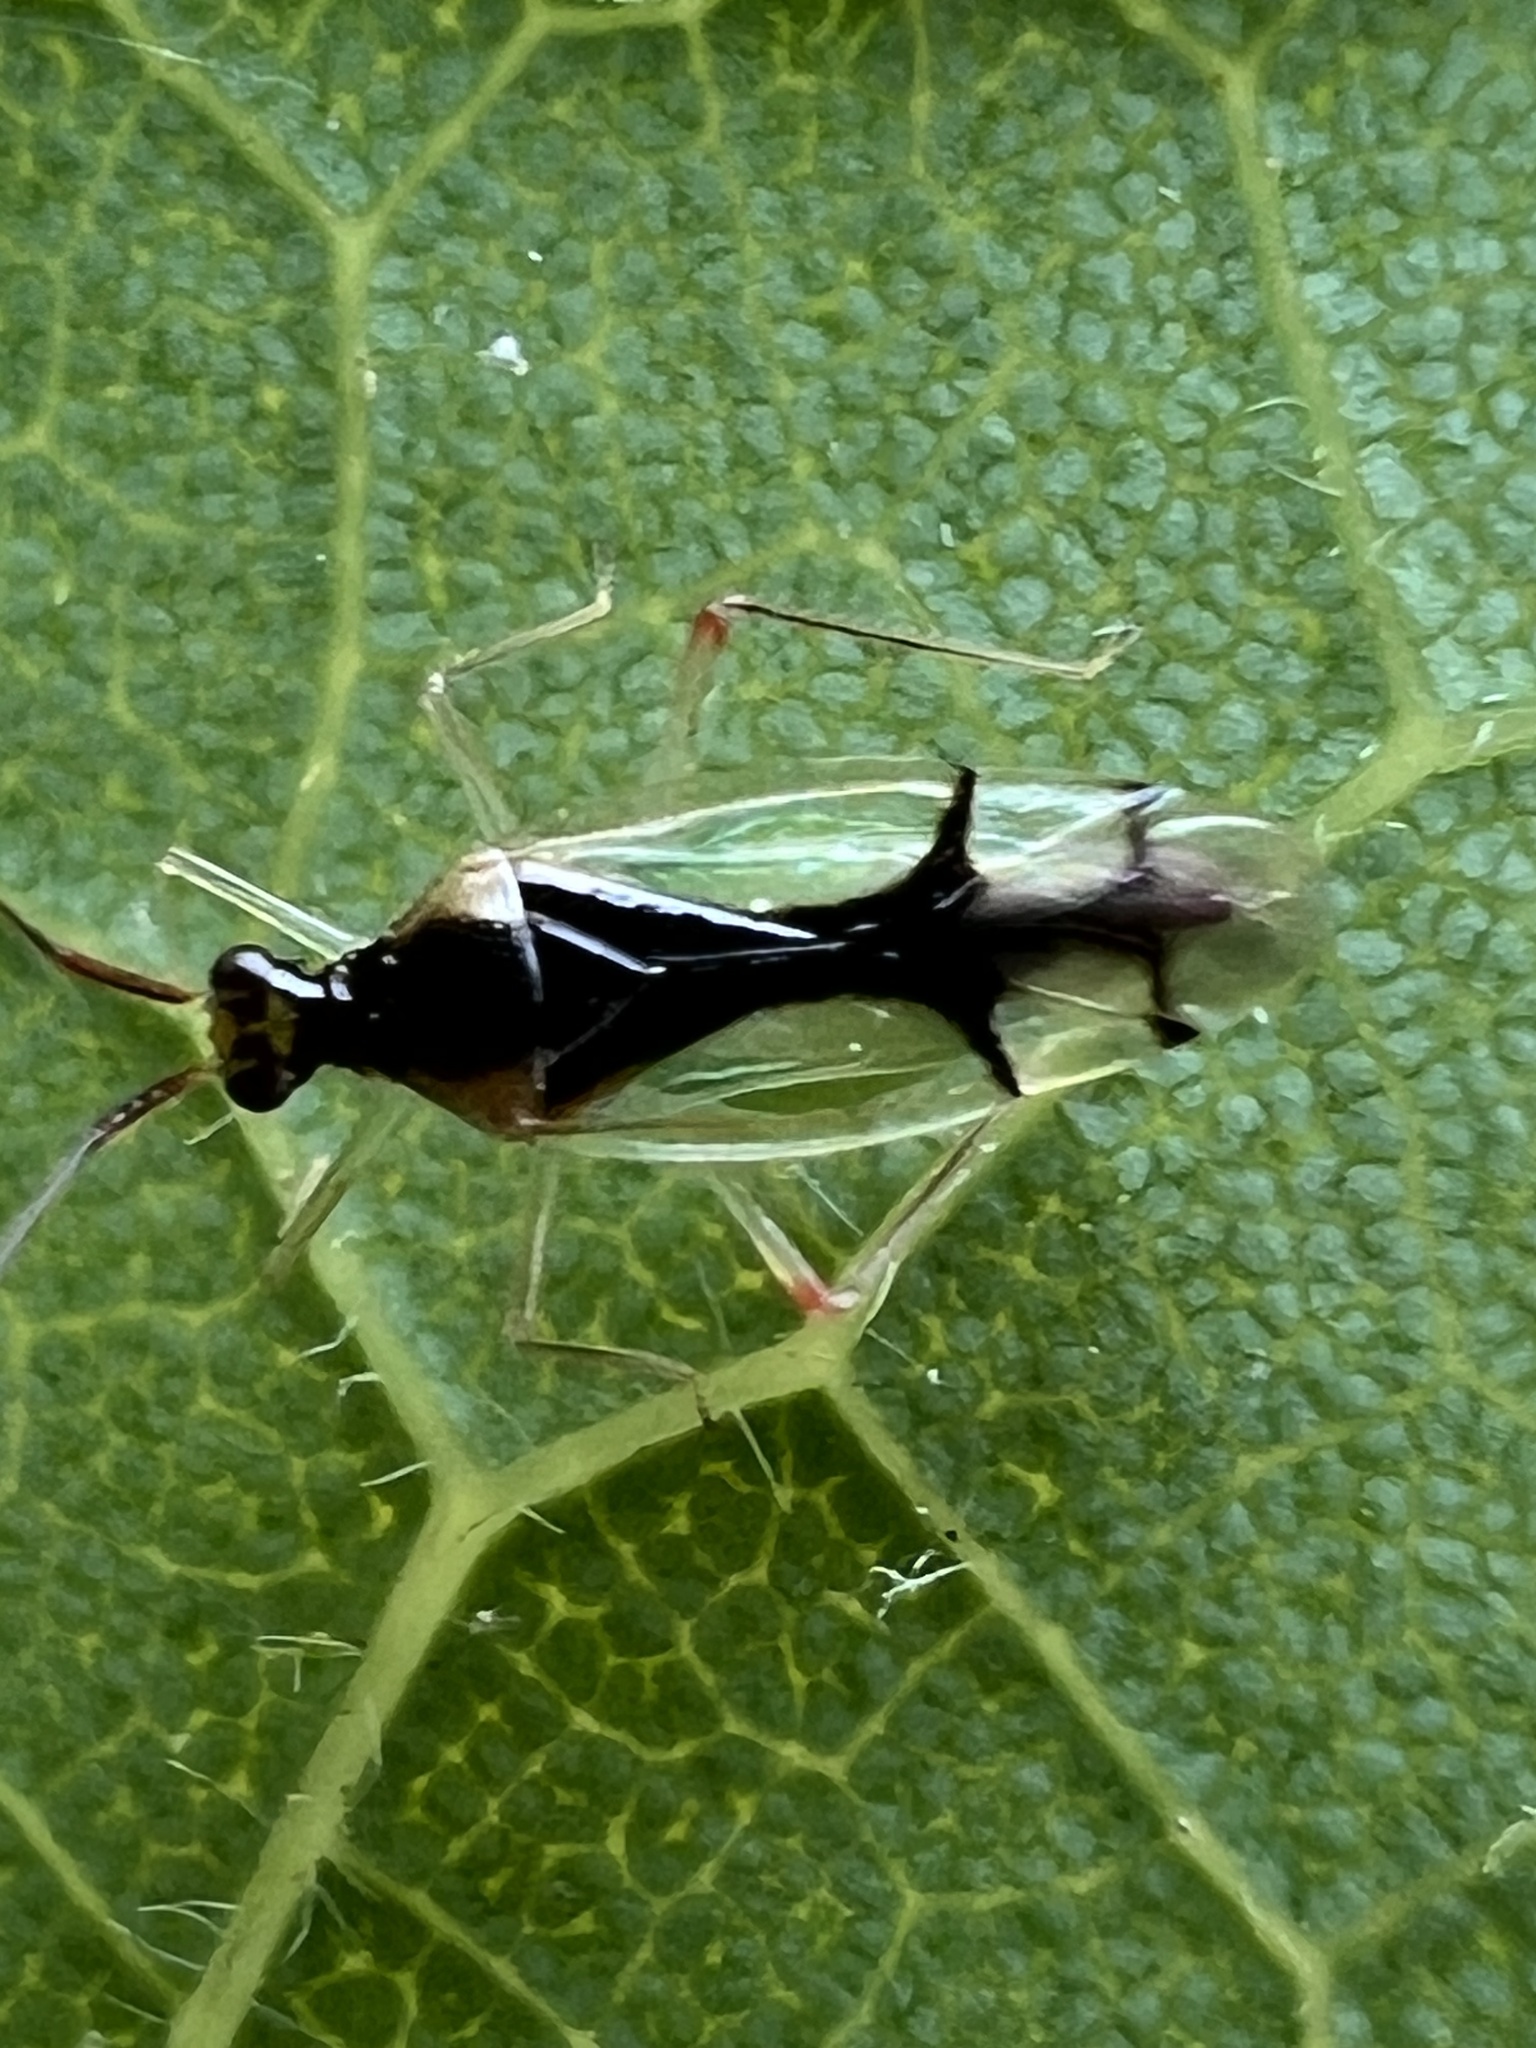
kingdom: Animalia
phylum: Arthropoda
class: Insecta
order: Hemiptera
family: Miridae
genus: Hyaliodes
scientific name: Hyaliodes vitripennis
